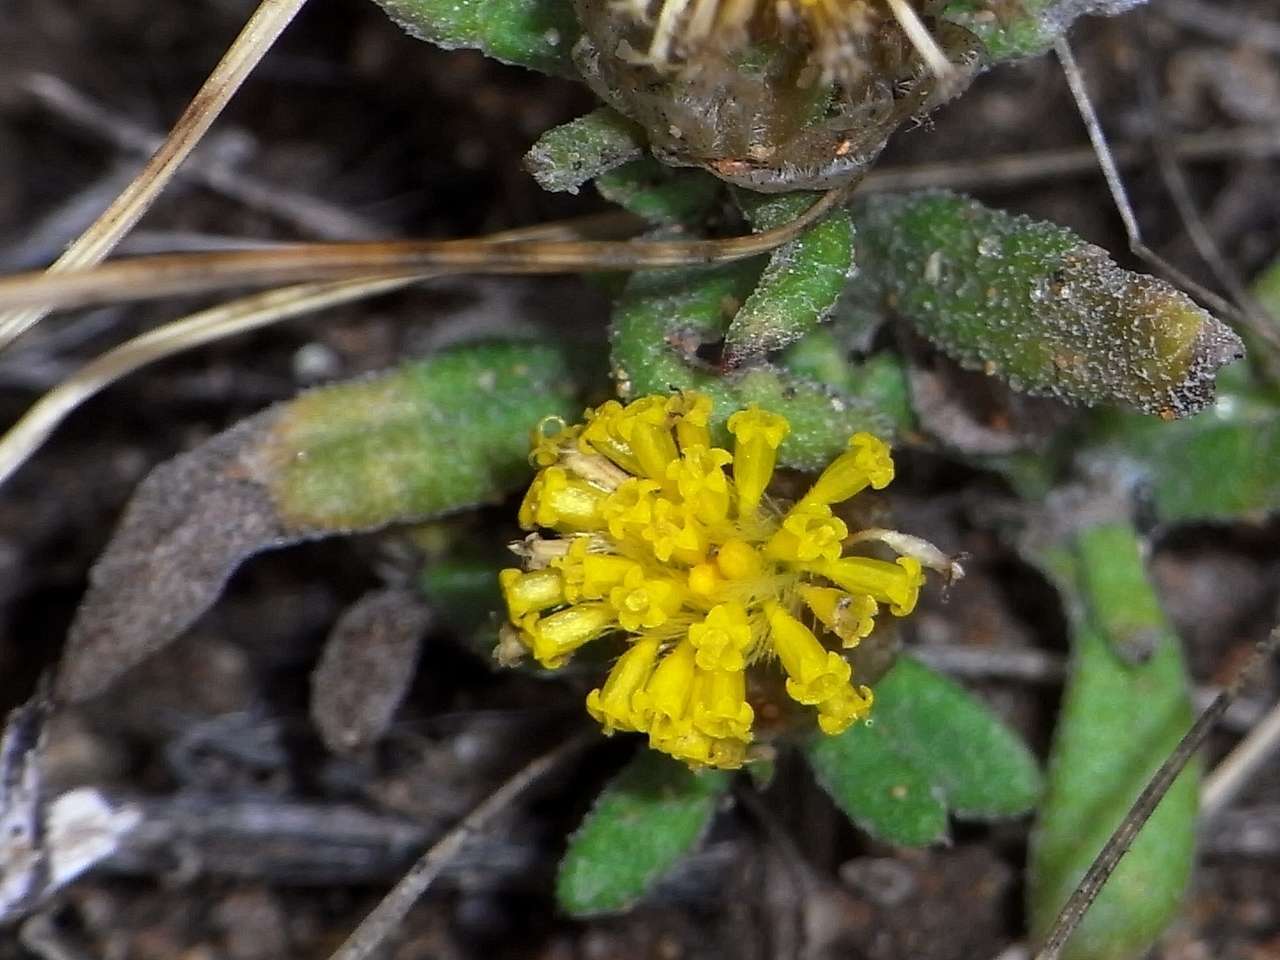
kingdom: Plantae
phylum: Tracheophyta
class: Magnoliopsida
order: Asterales
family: Asteraceae
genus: Triptilodiscus
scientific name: Triptilodiscus pygmaeus
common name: Common sunray
